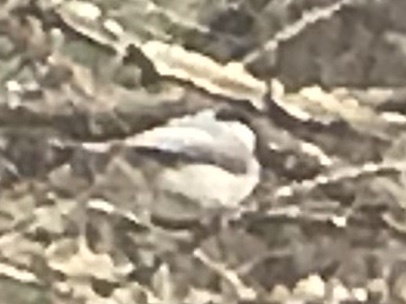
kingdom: Animalia
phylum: Chordata
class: Aves
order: Passeriformes
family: Paridae
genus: Poecile
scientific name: Poecile carolinensis
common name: Carolina chickadee
